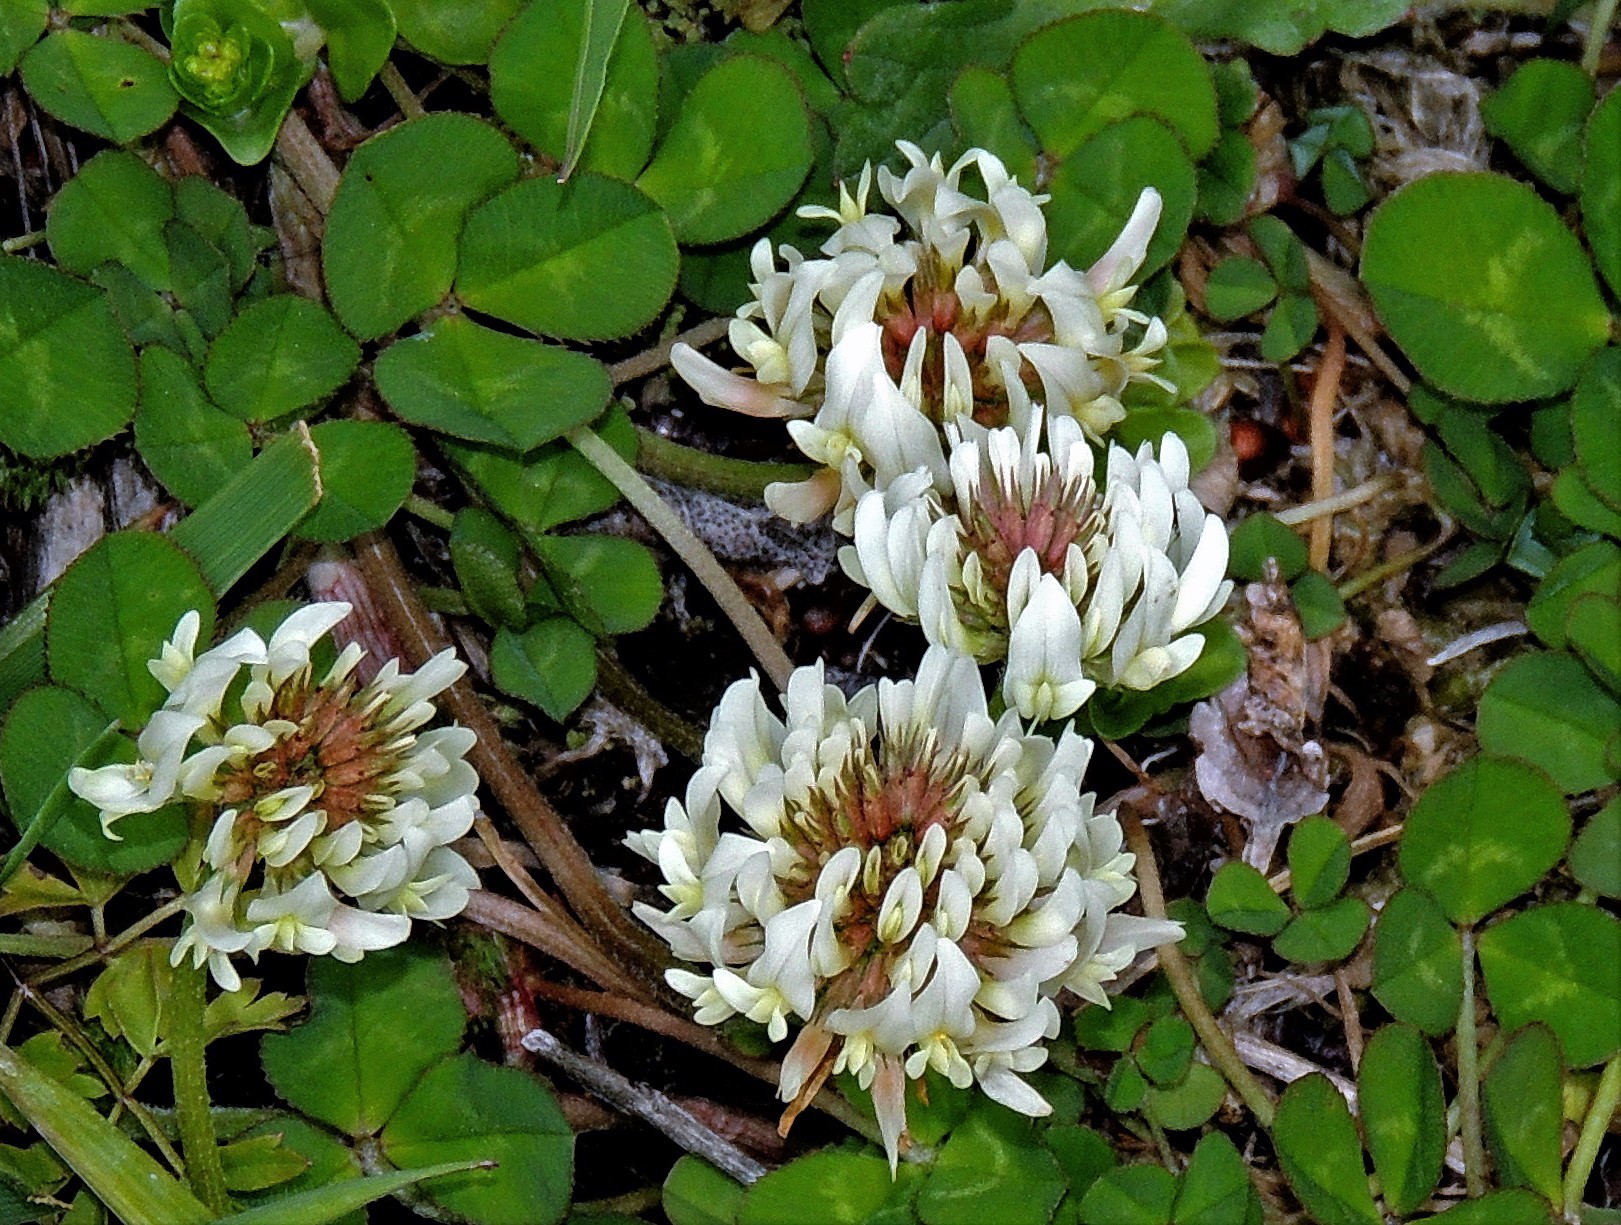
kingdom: Plantae
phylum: Tracheophyta
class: Magnoliopsida
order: Fabales
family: Fabaceae
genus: Trifolium
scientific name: Trifolium repens
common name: White clover
